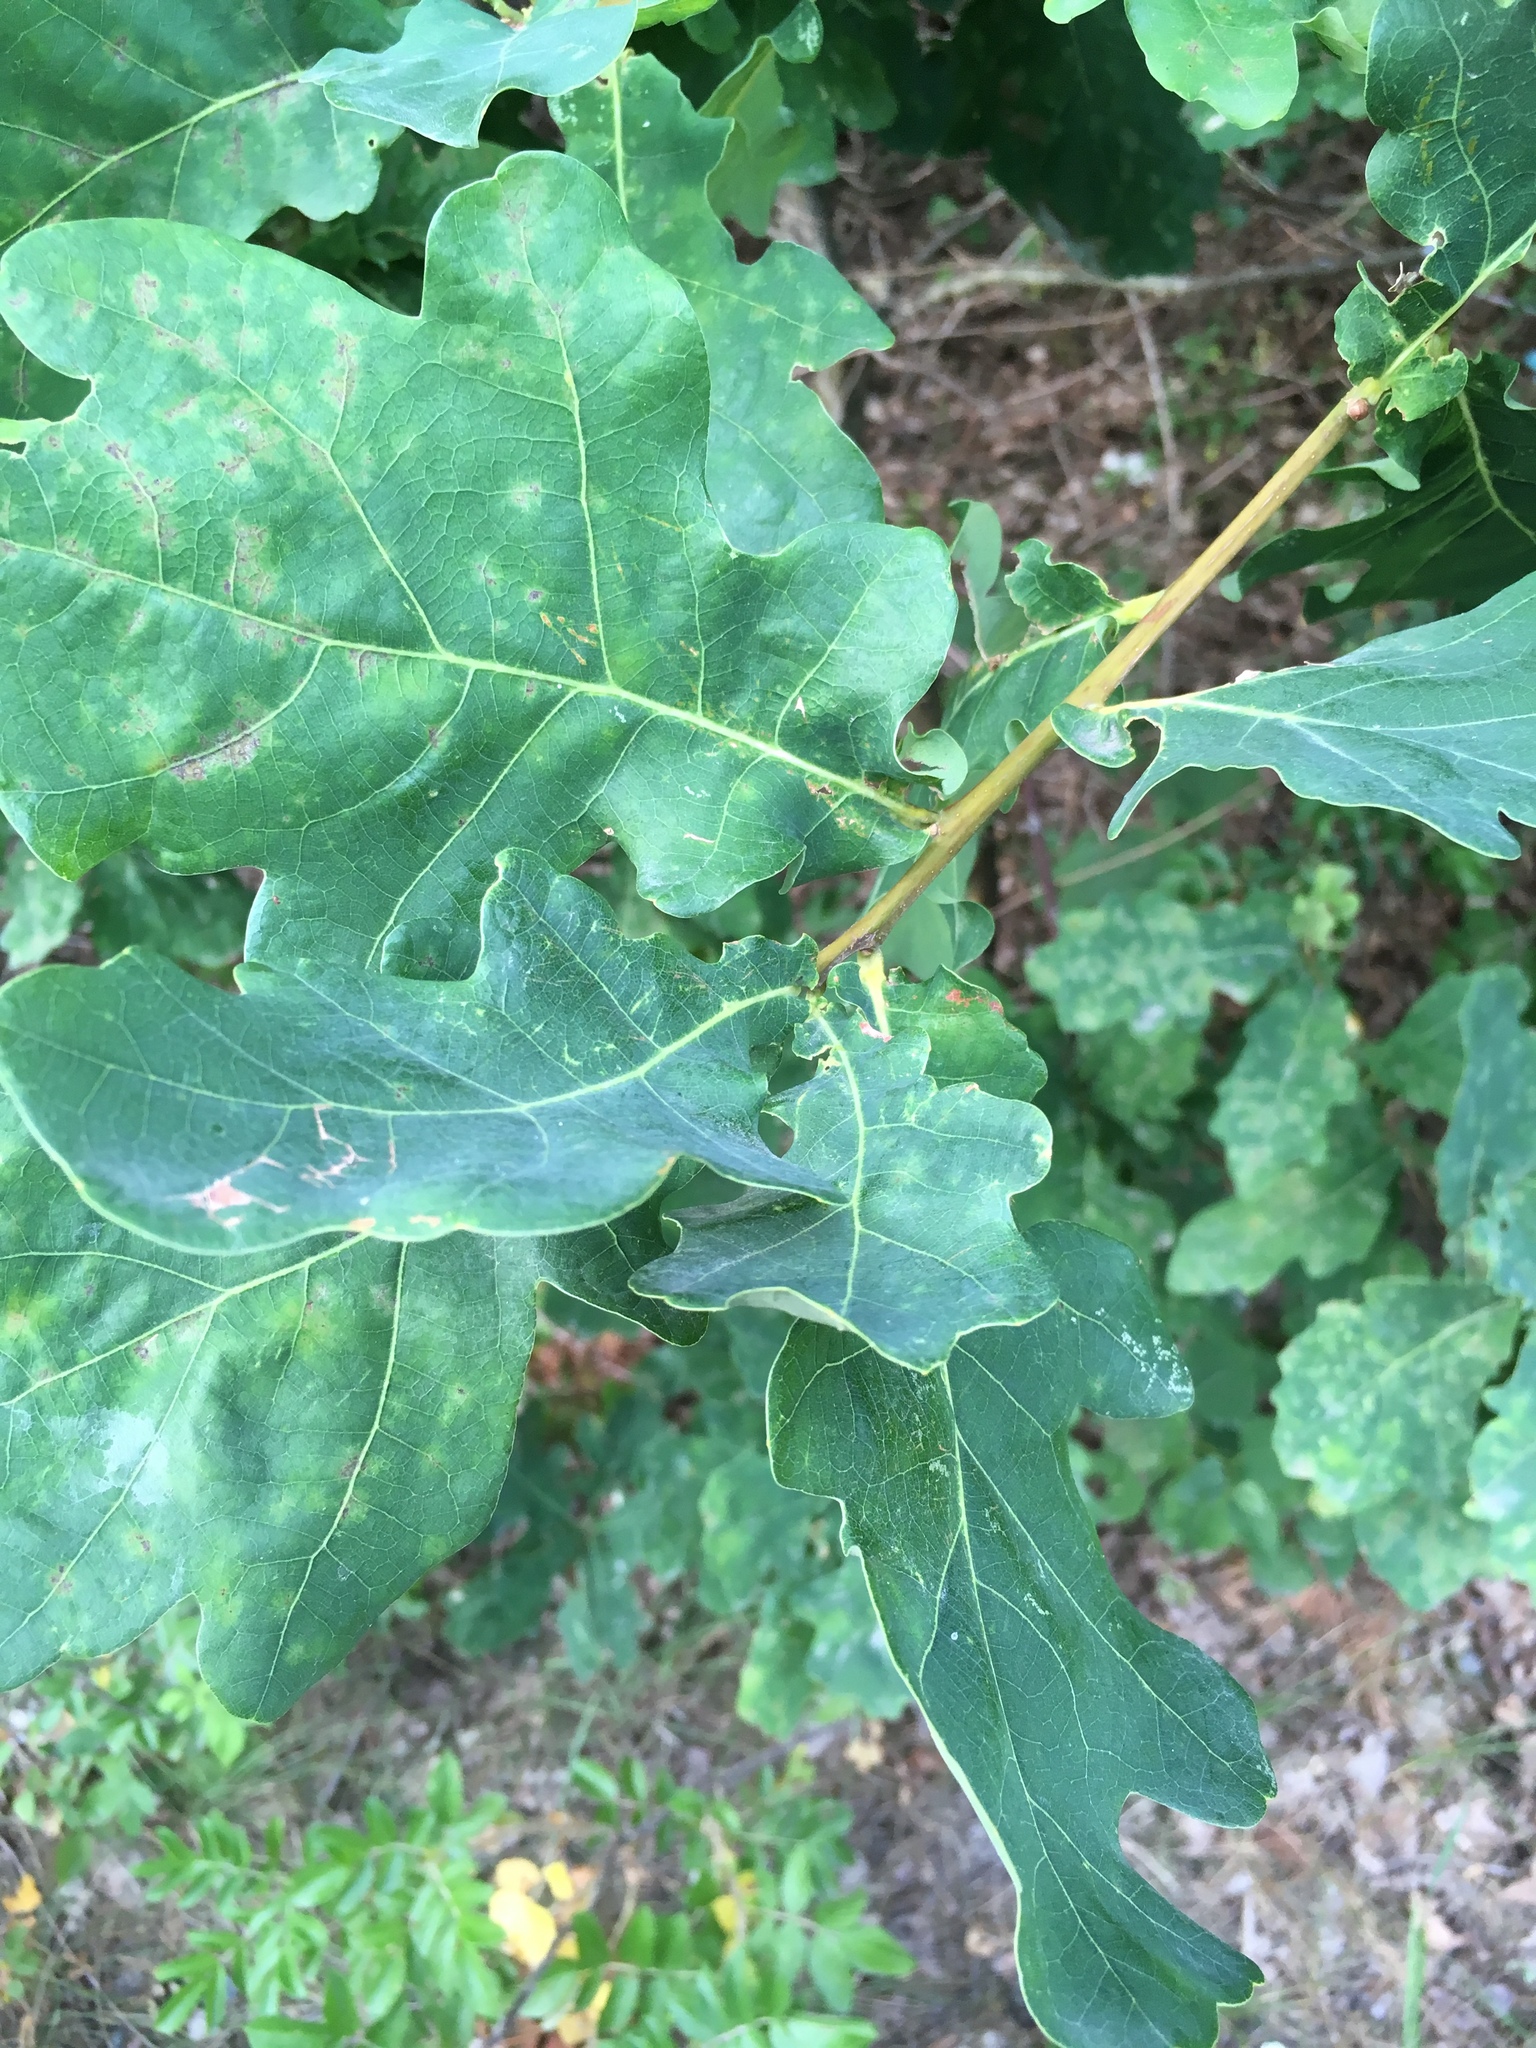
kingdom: Plantae
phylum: Tracheophyta
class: Magnoliopsida
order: Fagales
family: Fagaceae
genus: Quercus
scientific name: Quercus robur
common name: Pedunculate oak
